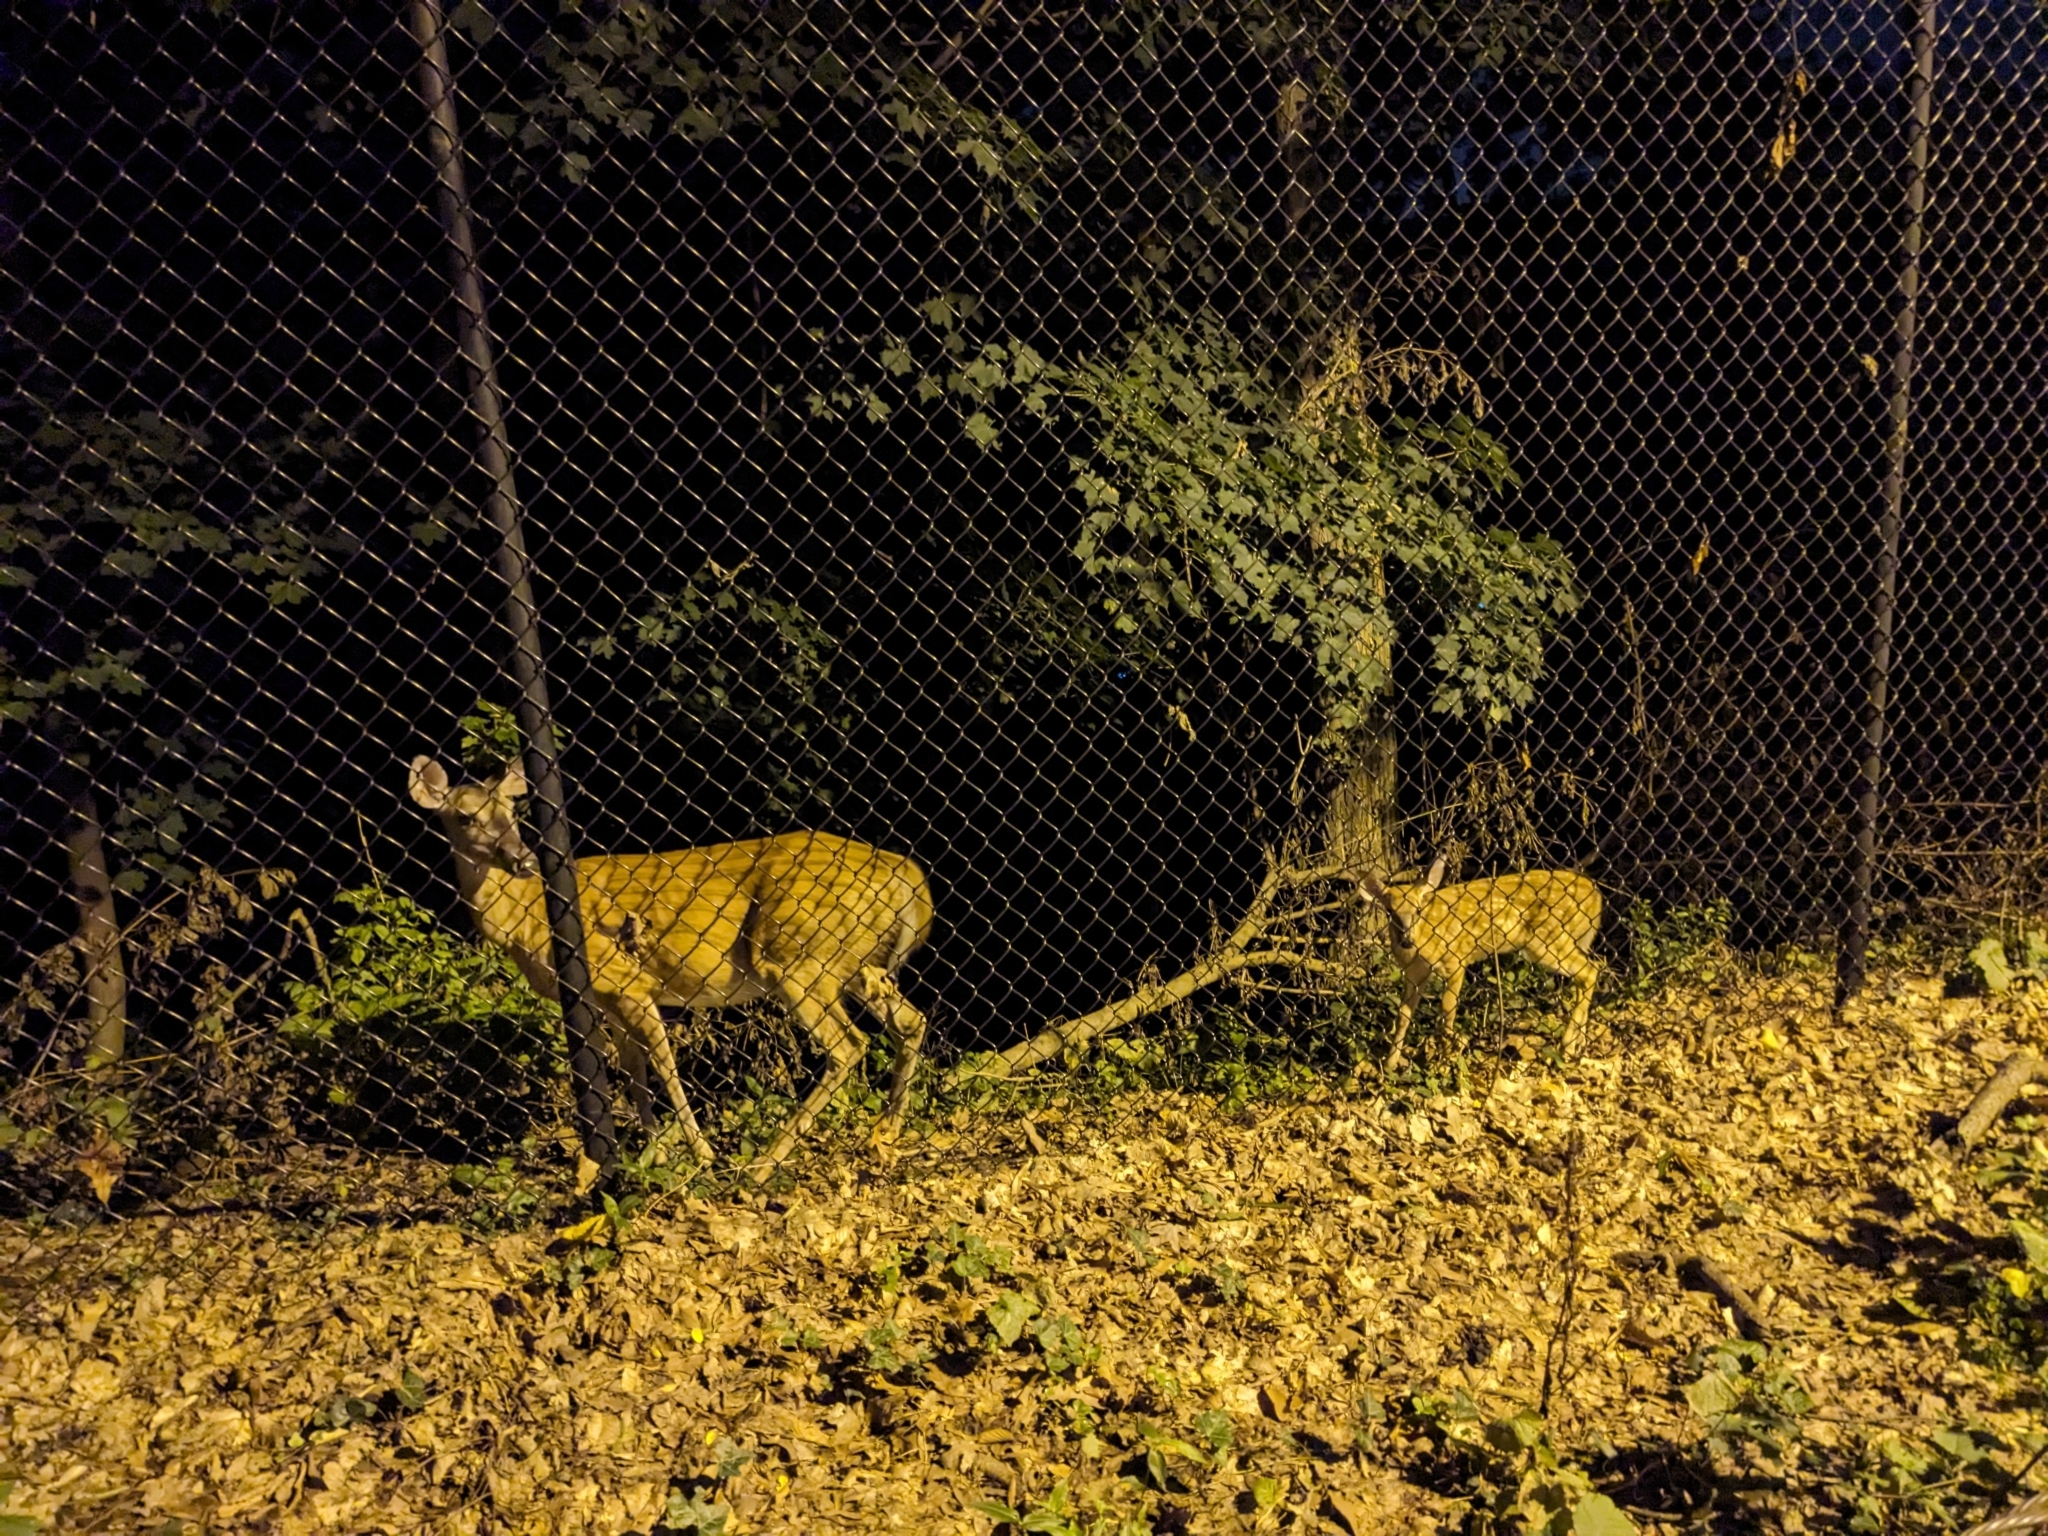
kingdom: Animalia
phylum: Chordata
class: Mammalia
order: Artiodactyla
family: Cervidae
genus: Odocoileus
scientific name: Odocoileus virginianus
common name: White-tailed deer
